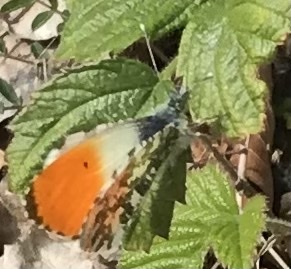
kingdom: Animalia
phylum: Arthropoda
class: Insecta
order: Lepidoptera
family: Pieridae
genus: Anthocharis
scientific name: Anthocharis cardamines
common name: Orange-tip
